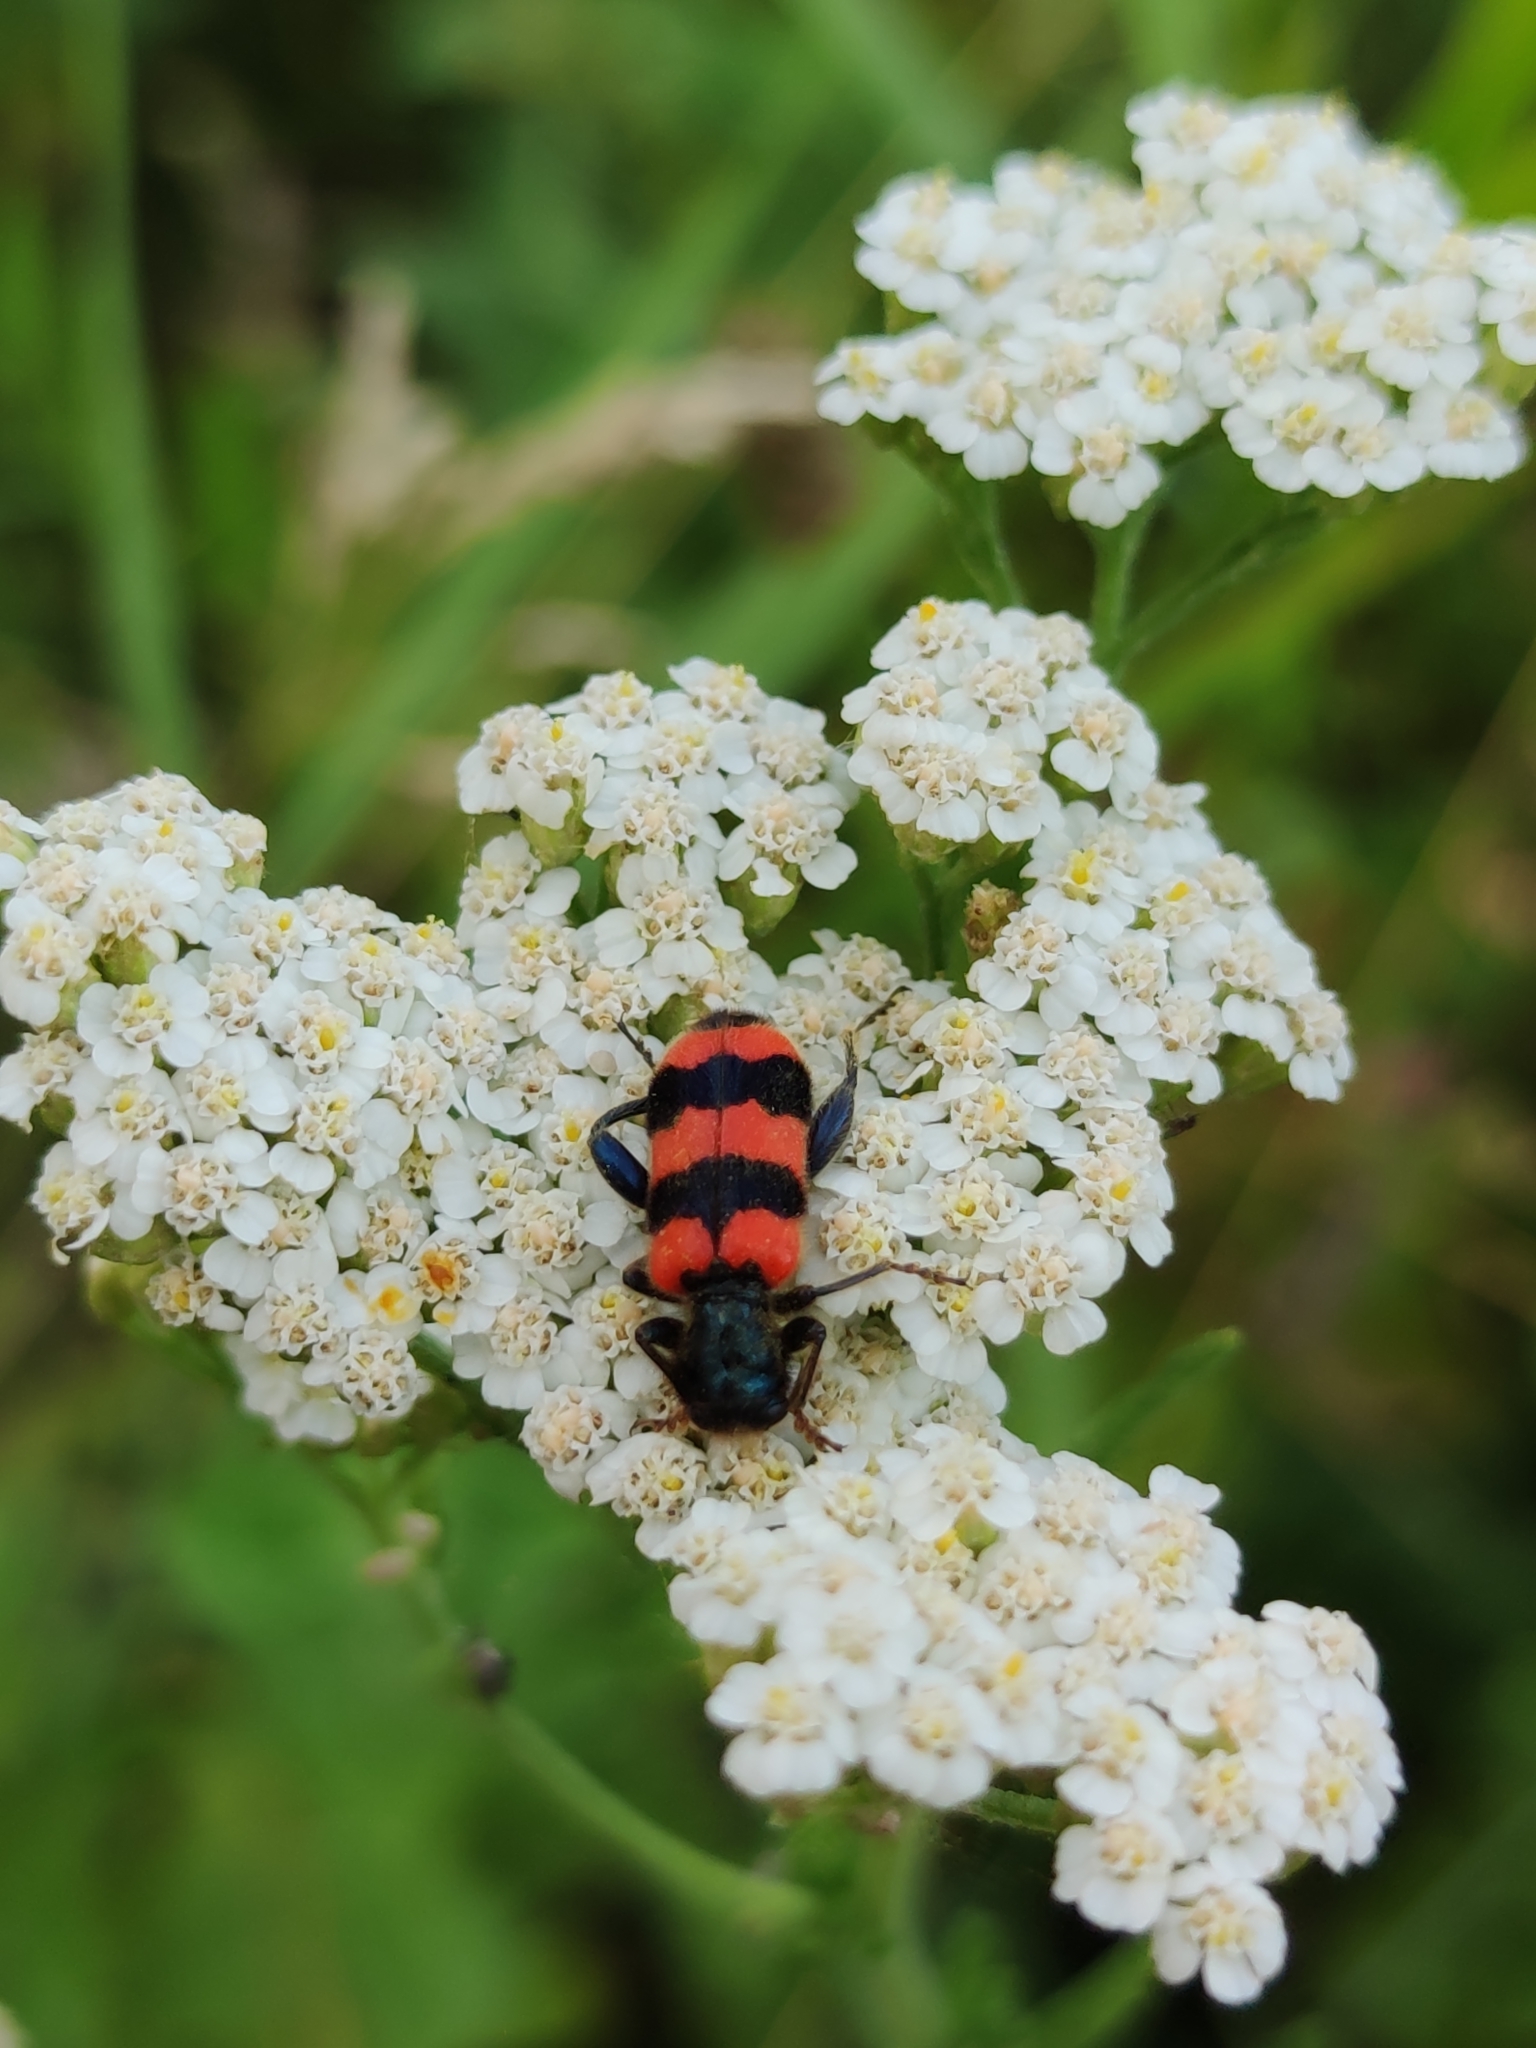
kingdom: Animalia
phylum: Arthropoda
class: Insecta
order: Coleoptera
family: Cleridae
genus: Trichodes
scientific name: Trichodes apiarius
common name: Bee-eating beetle
